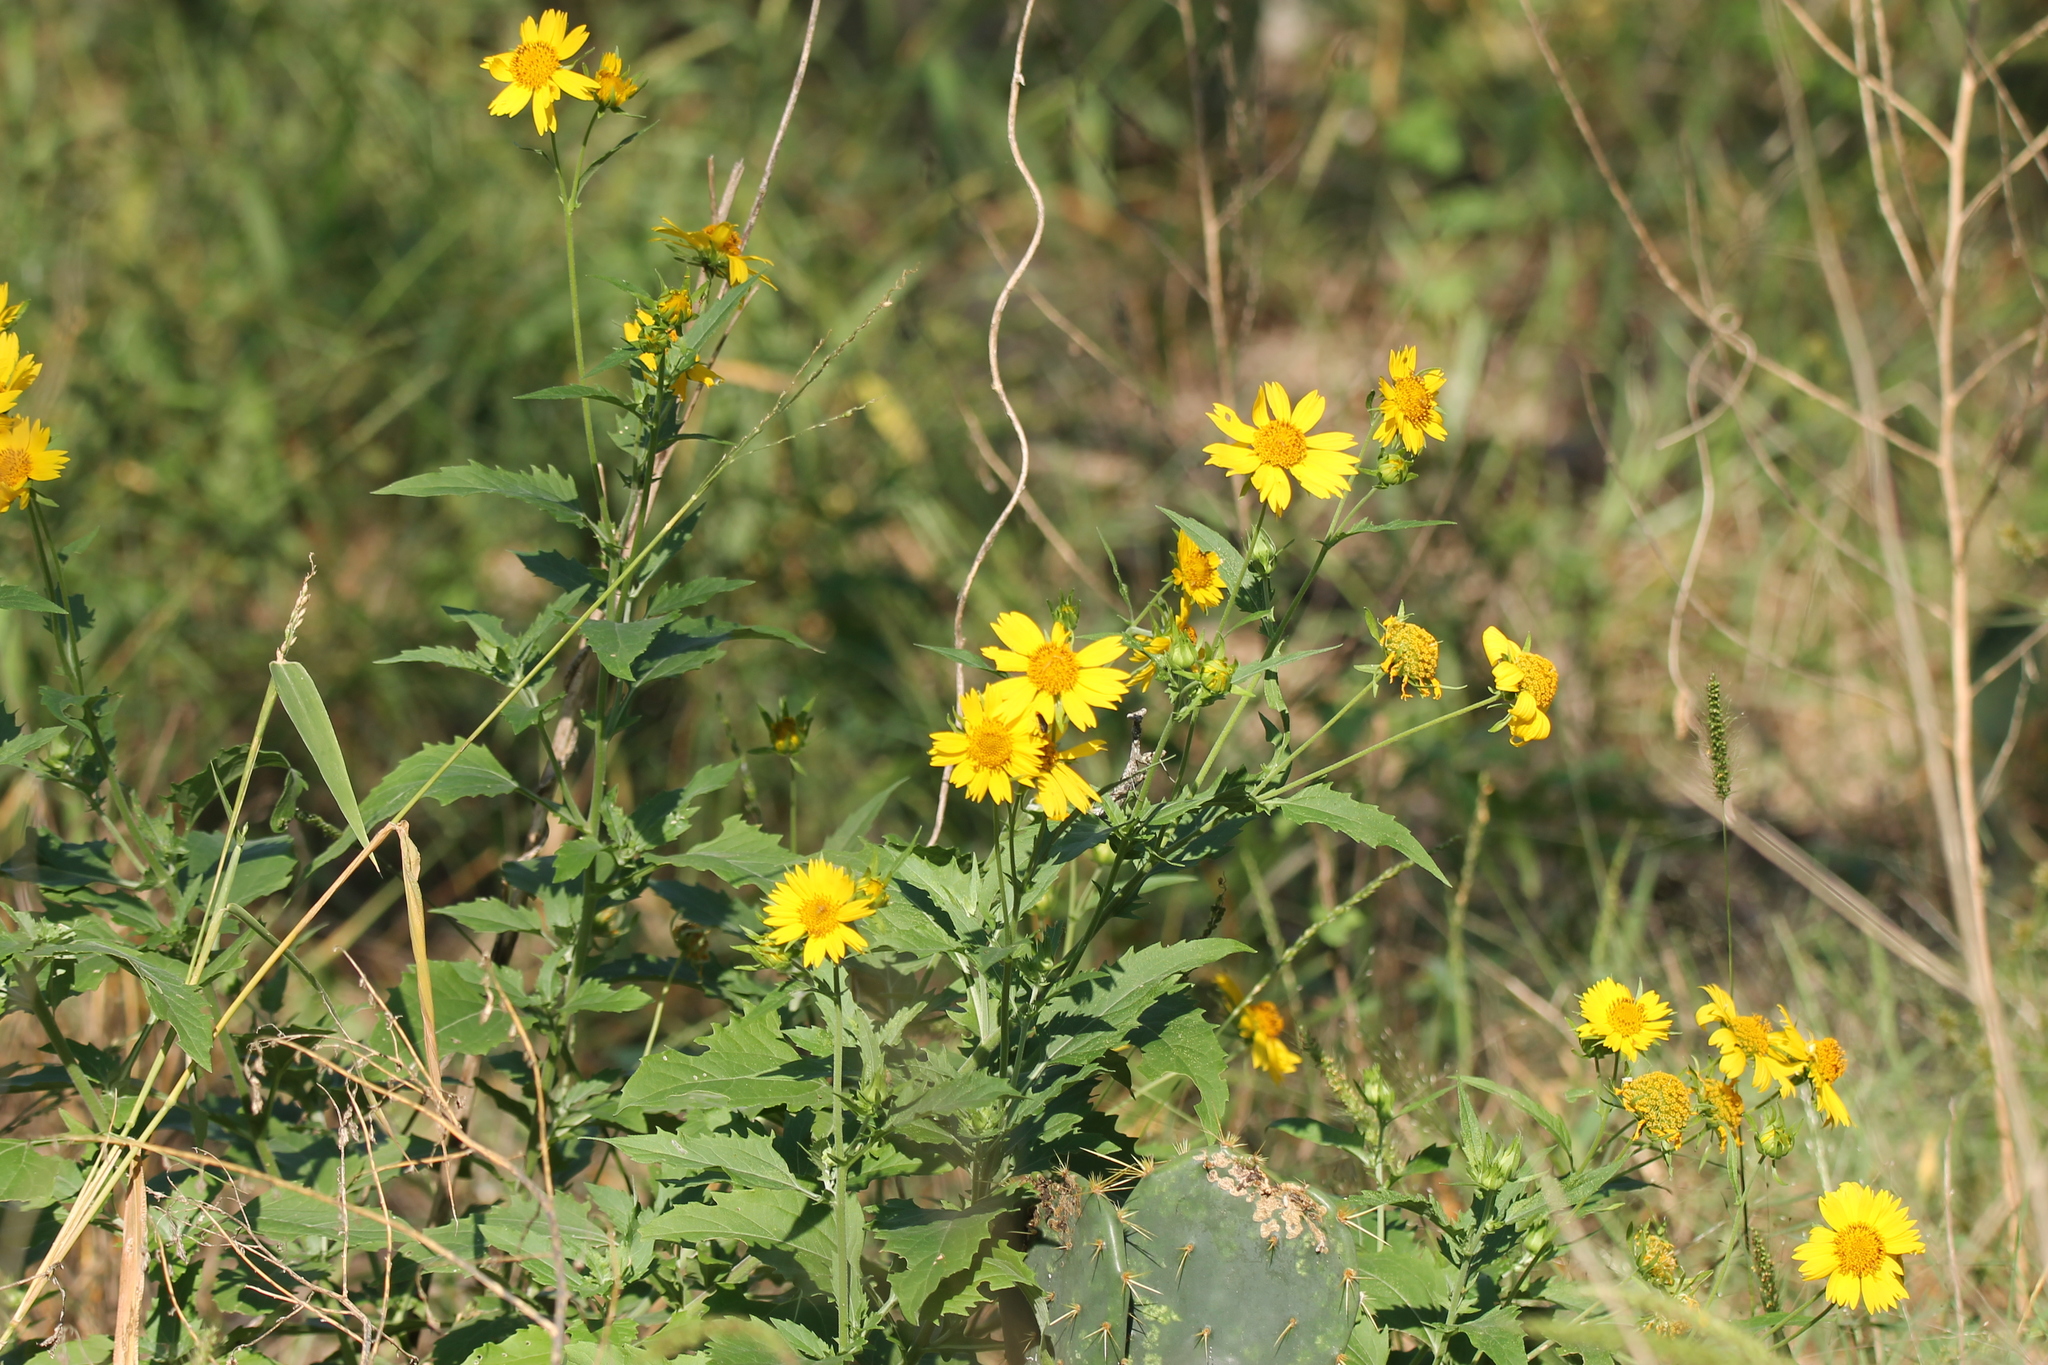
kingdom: Plantae
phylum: Tracheophyta
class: Magnoliopsida
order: Asterales
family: Asteraceae
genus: Verbesina
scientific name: Verbesina encelioides
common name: Golden crownbeard
